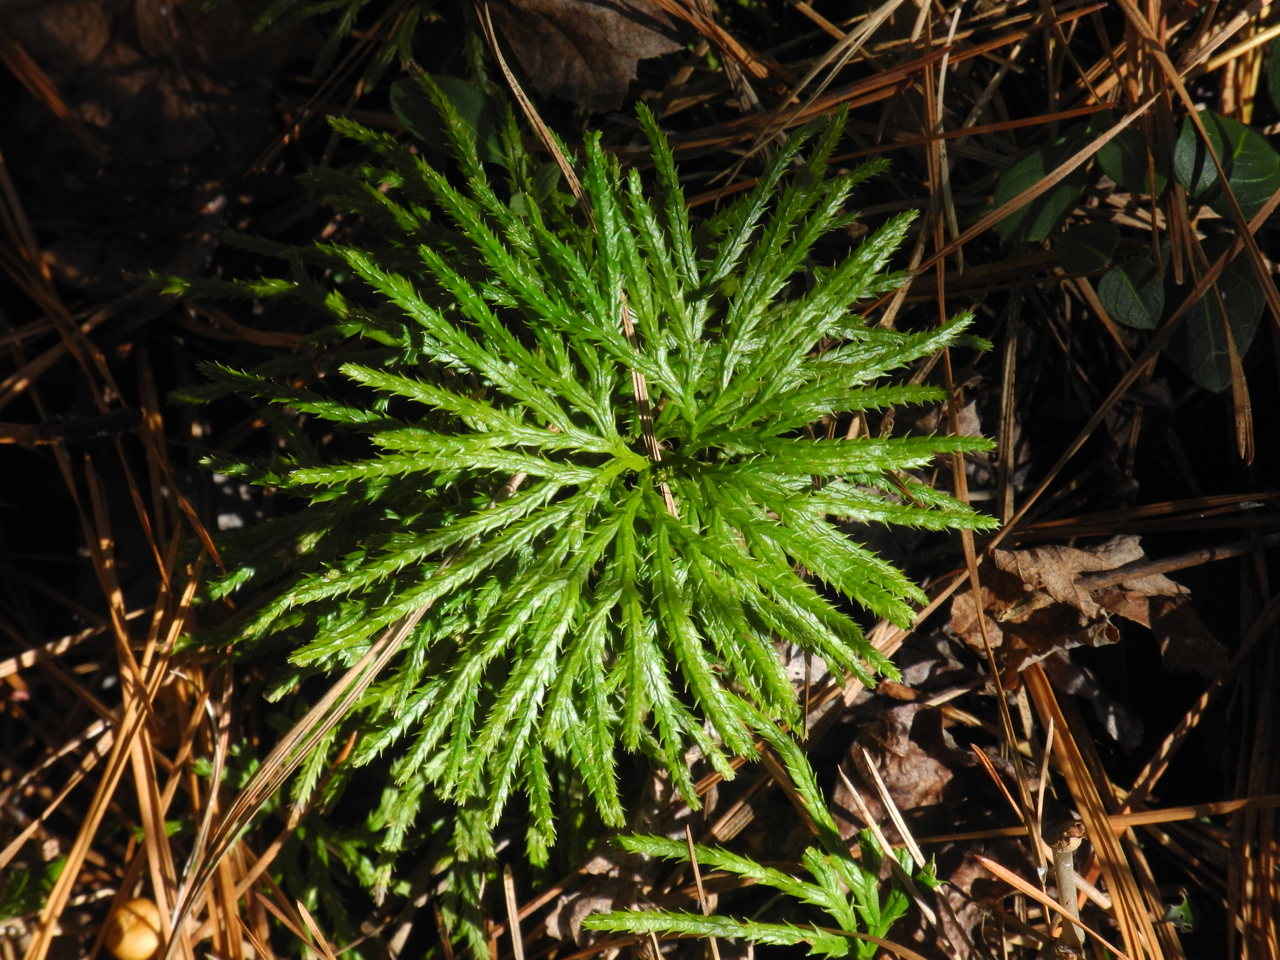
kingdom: Plantae
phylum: Tracheophyta
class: Lycopodiopsida
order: Lycopodiales
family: Lycopodiaceae
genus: Diphasiastrum
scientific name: Diphasiastrum digitatum
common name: Southern running-pine
